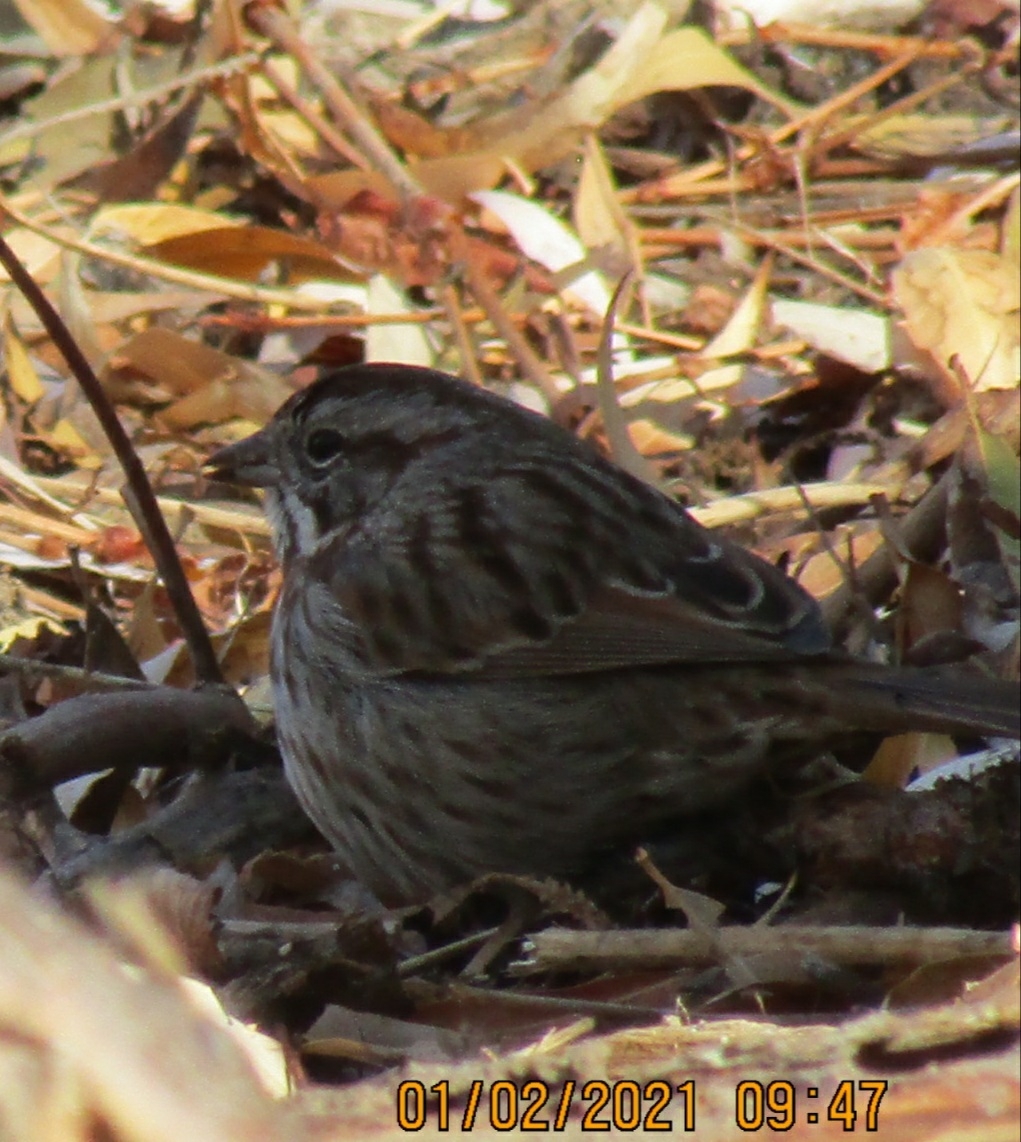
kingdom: Animalia
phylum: Chordata
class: Aves
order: Passeriformes
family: Passerellidae
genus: Melospiza
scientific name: Melospiza melodia
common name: Song sparrow
